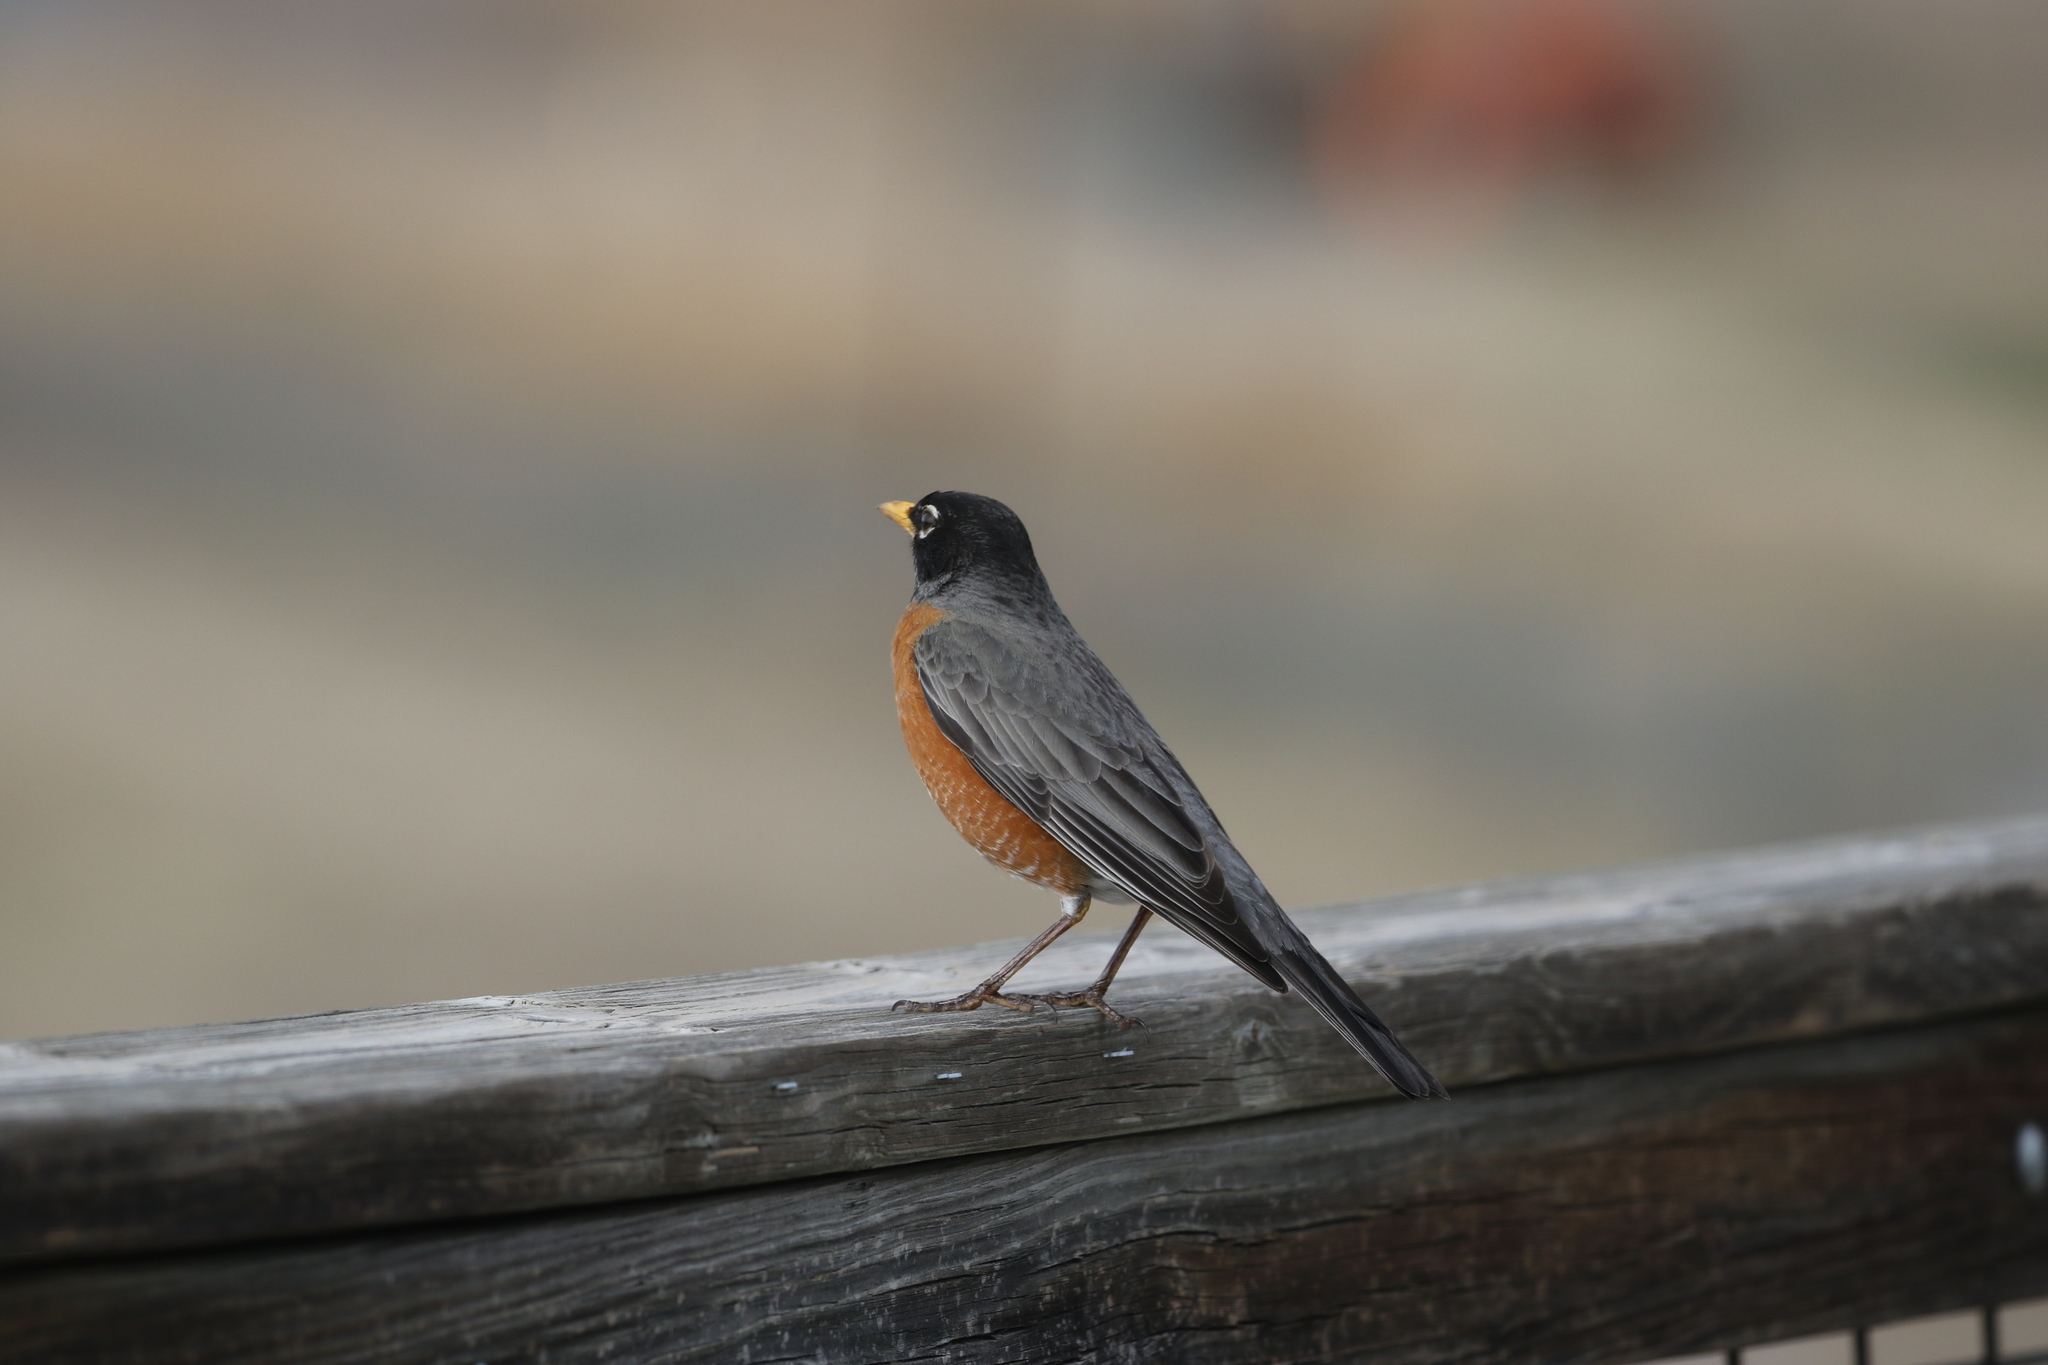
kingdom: Animalia
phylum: Chordata
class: Aves
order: Passeriformes
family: Turdidae
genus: Turdus
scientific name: Turdus migratorius
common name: American robin
